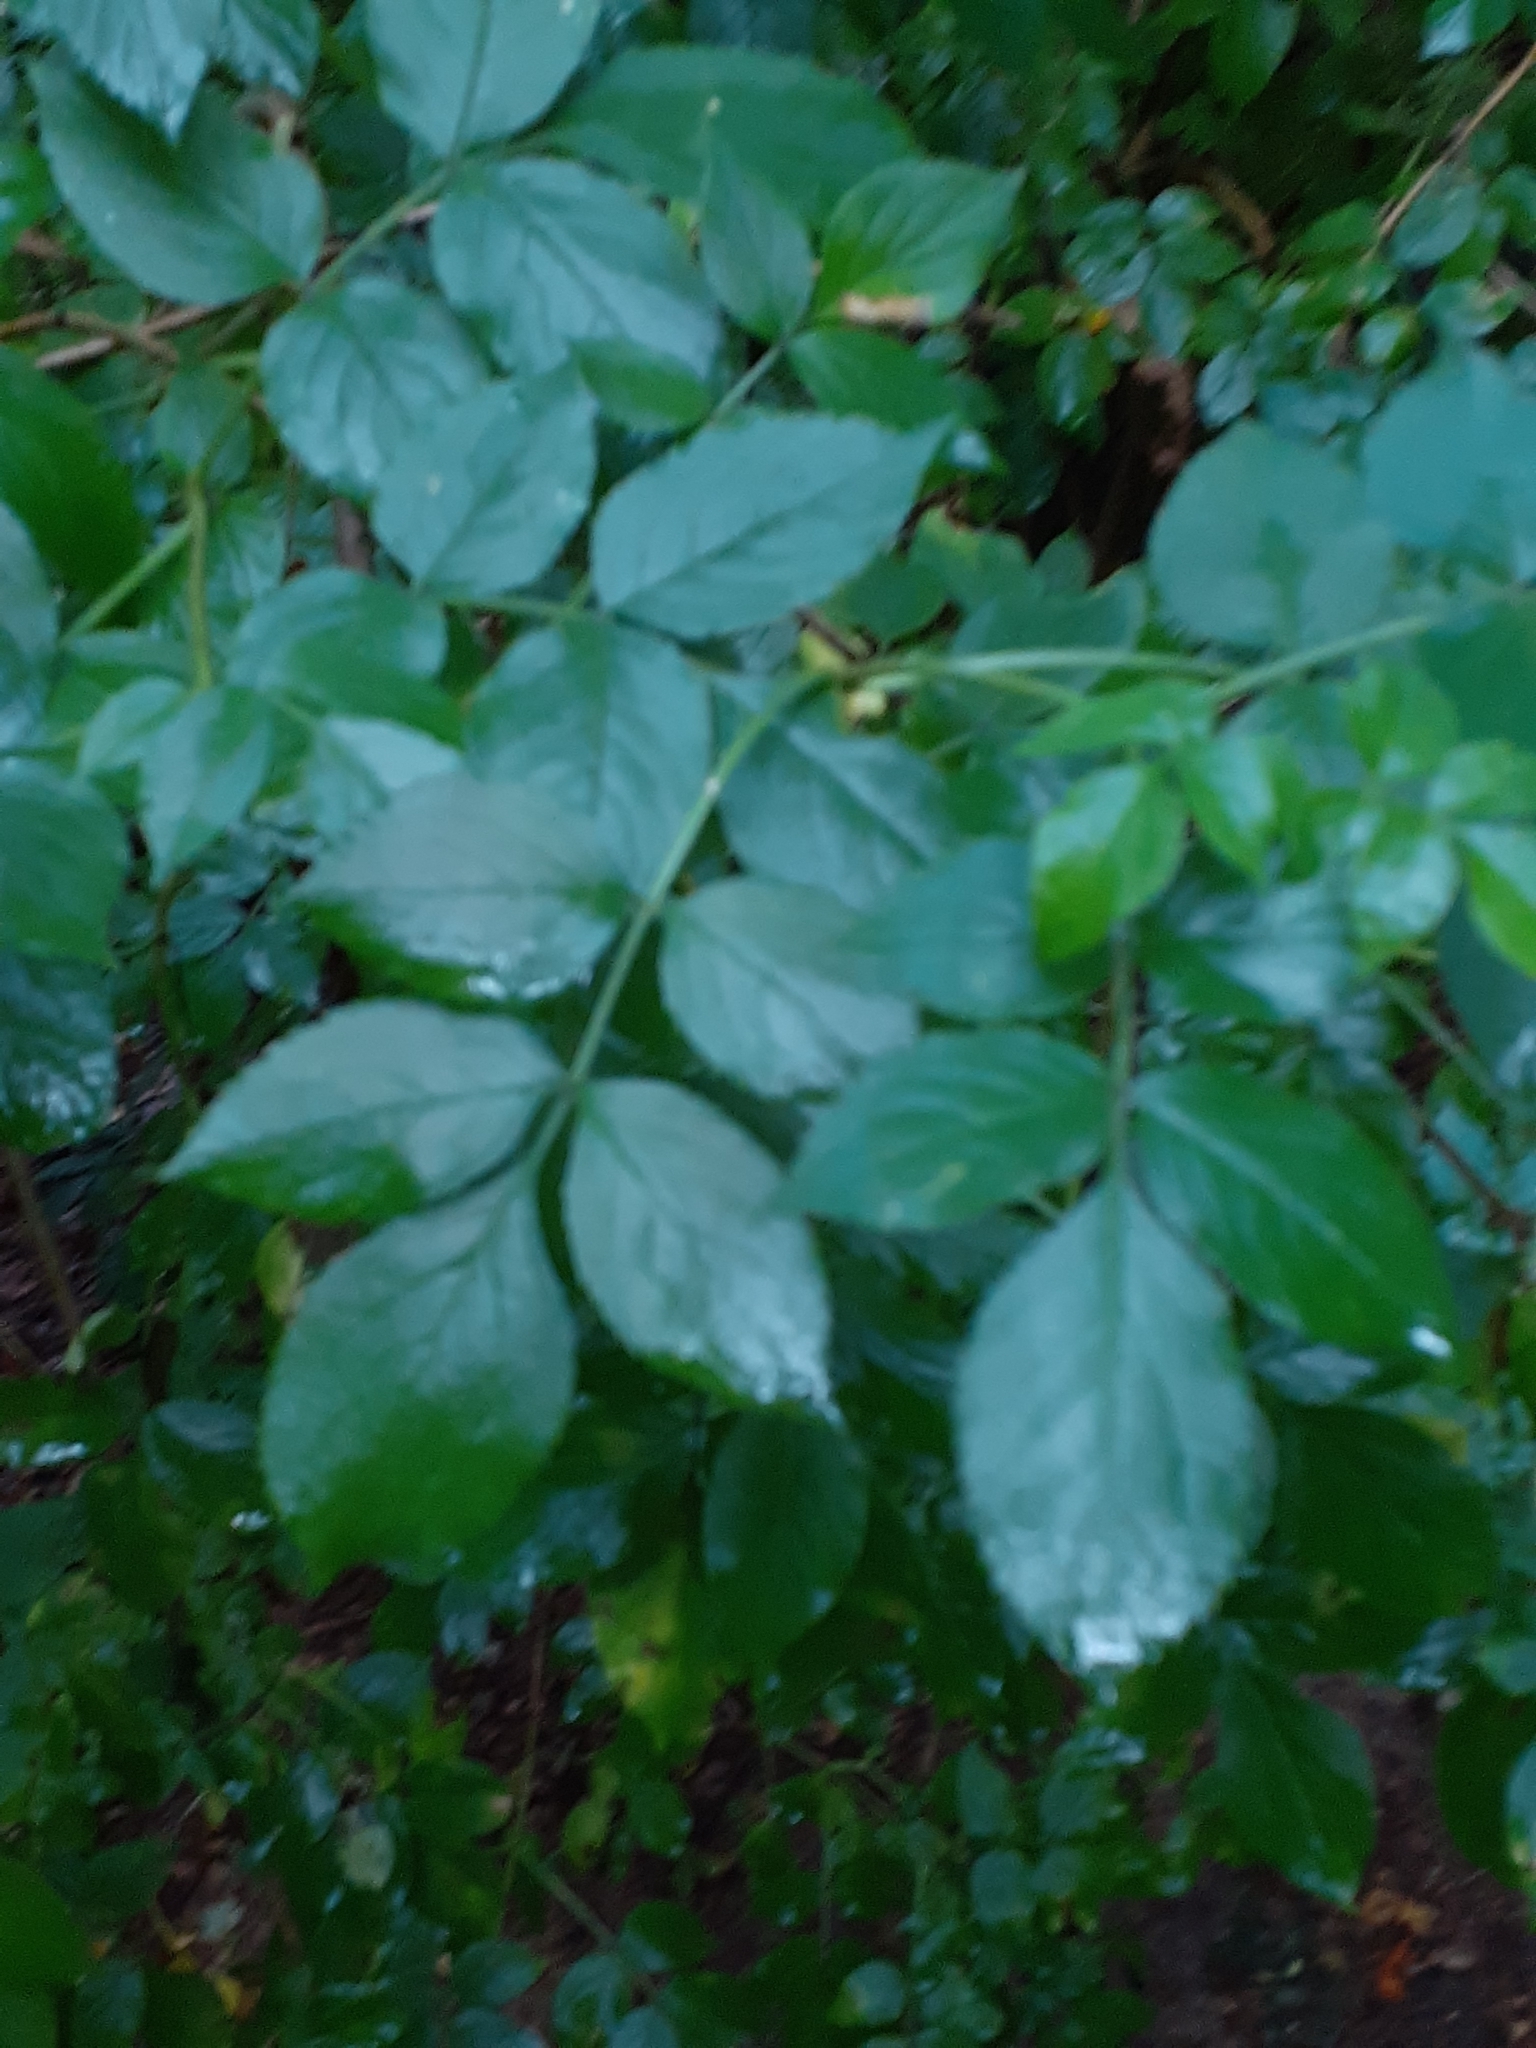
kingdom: Plantae
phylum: Tracheophyta
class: Magnoliopsida
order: Dipsacales
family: Viburnaceae
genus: Sambucus
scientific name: Sambucus nigra
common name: Elder
